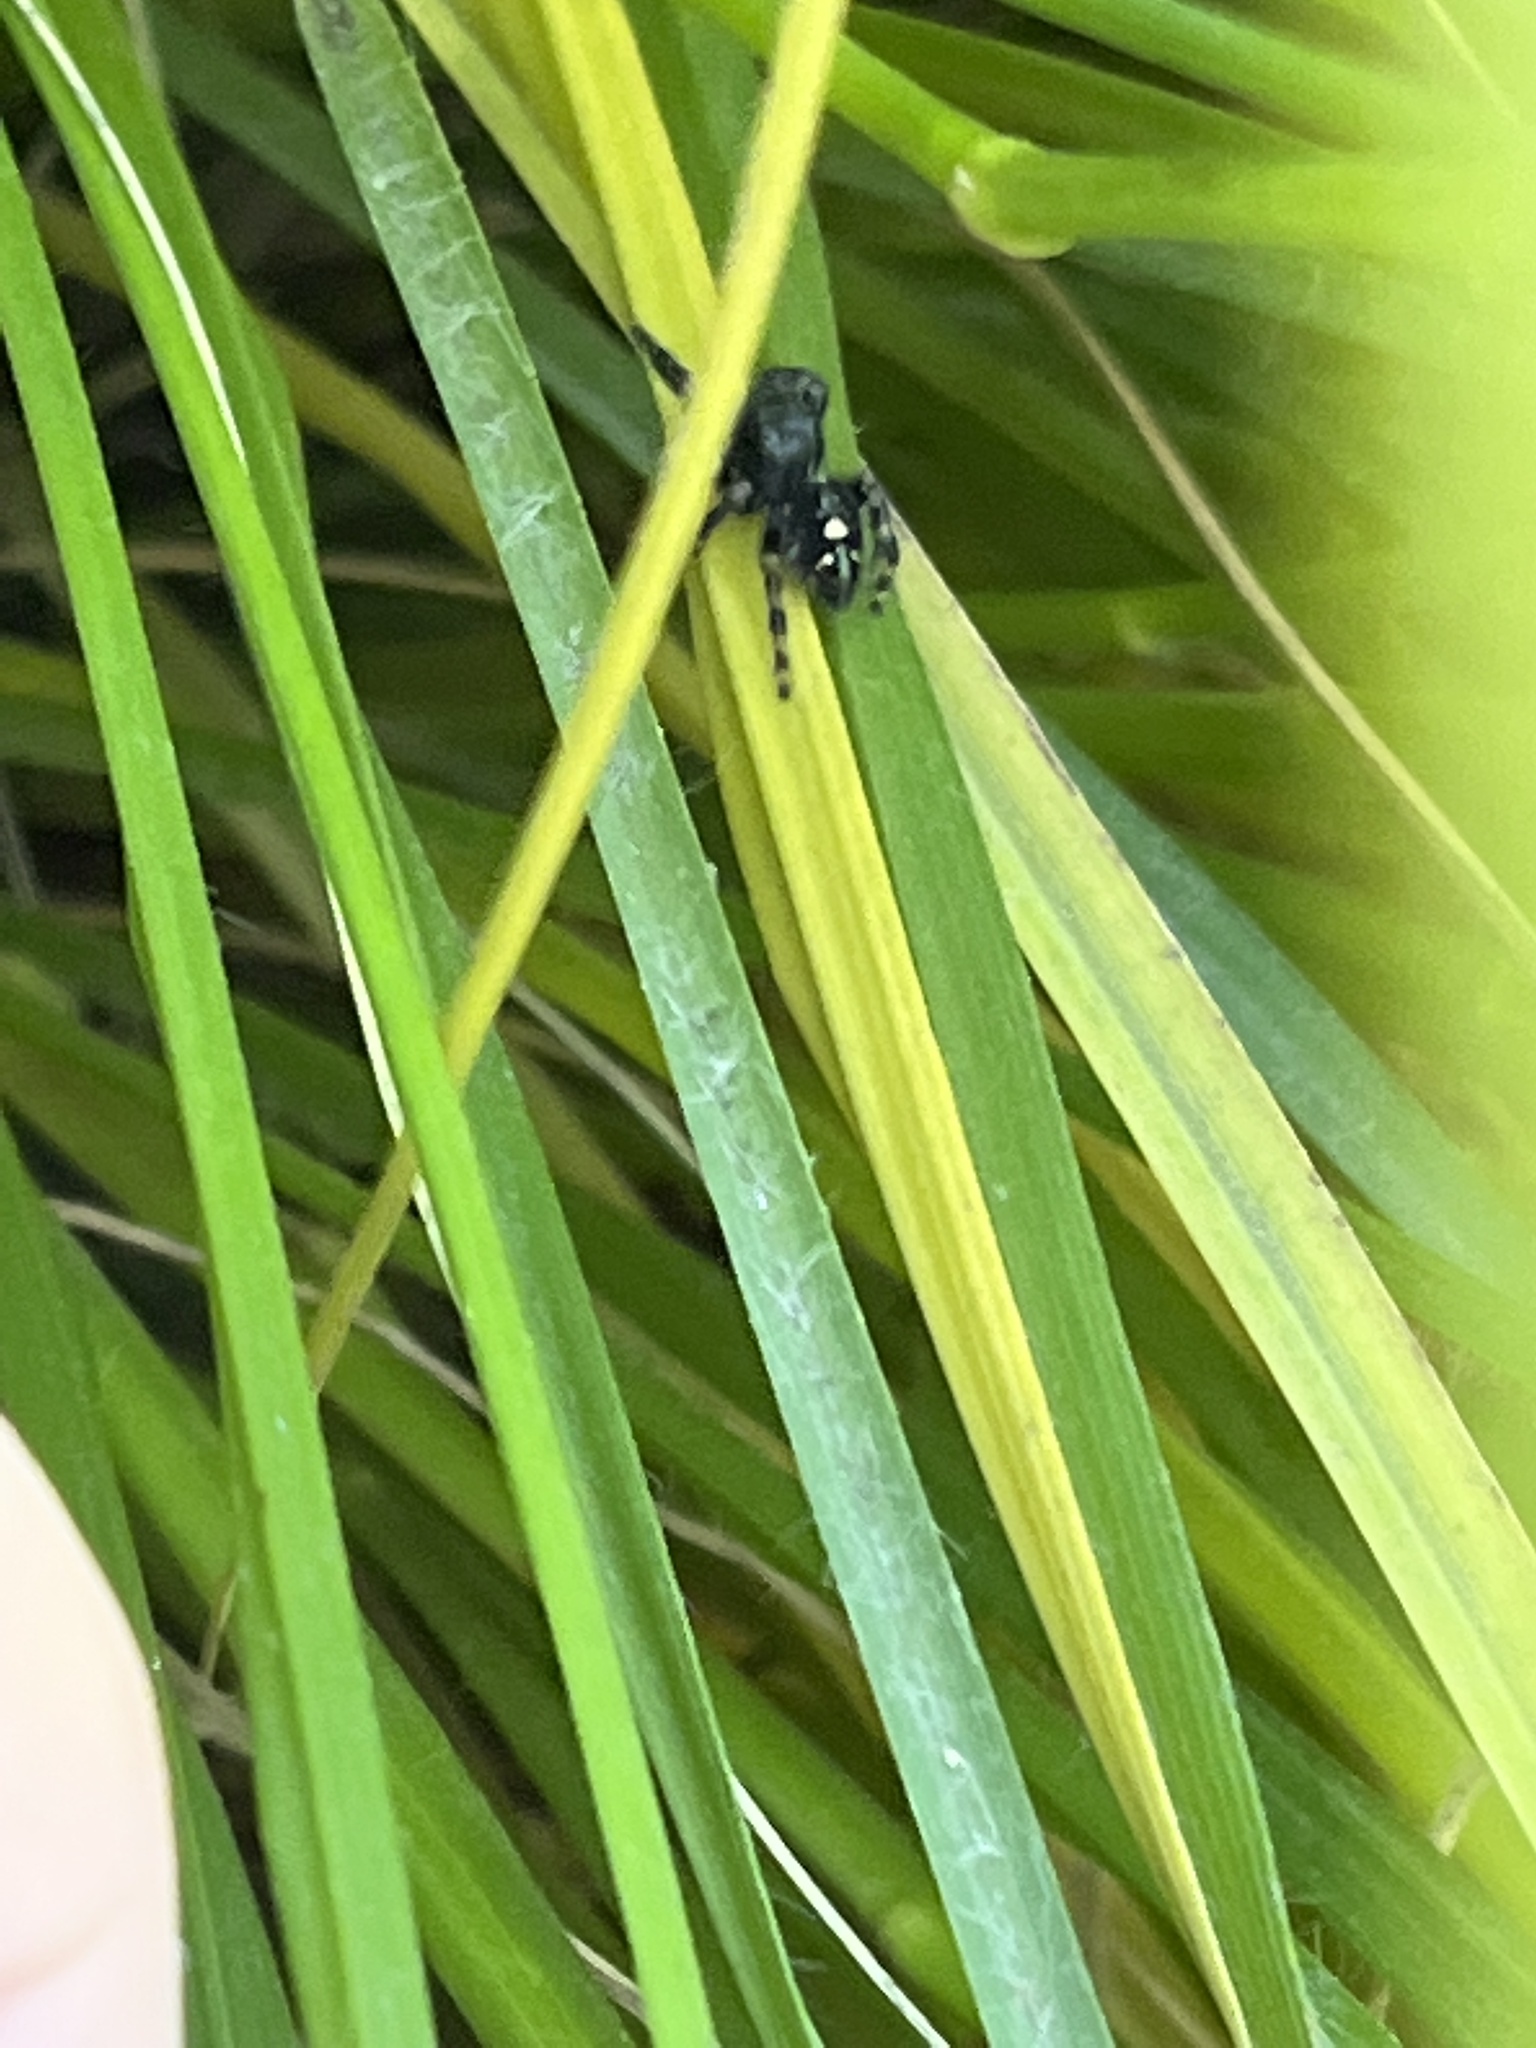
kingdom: Animalia
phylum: Arthropoda
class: Arachnida
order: Araneae
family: Salticidae
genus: Phidippus
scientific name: Phidippus audax
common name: Bold jumper
